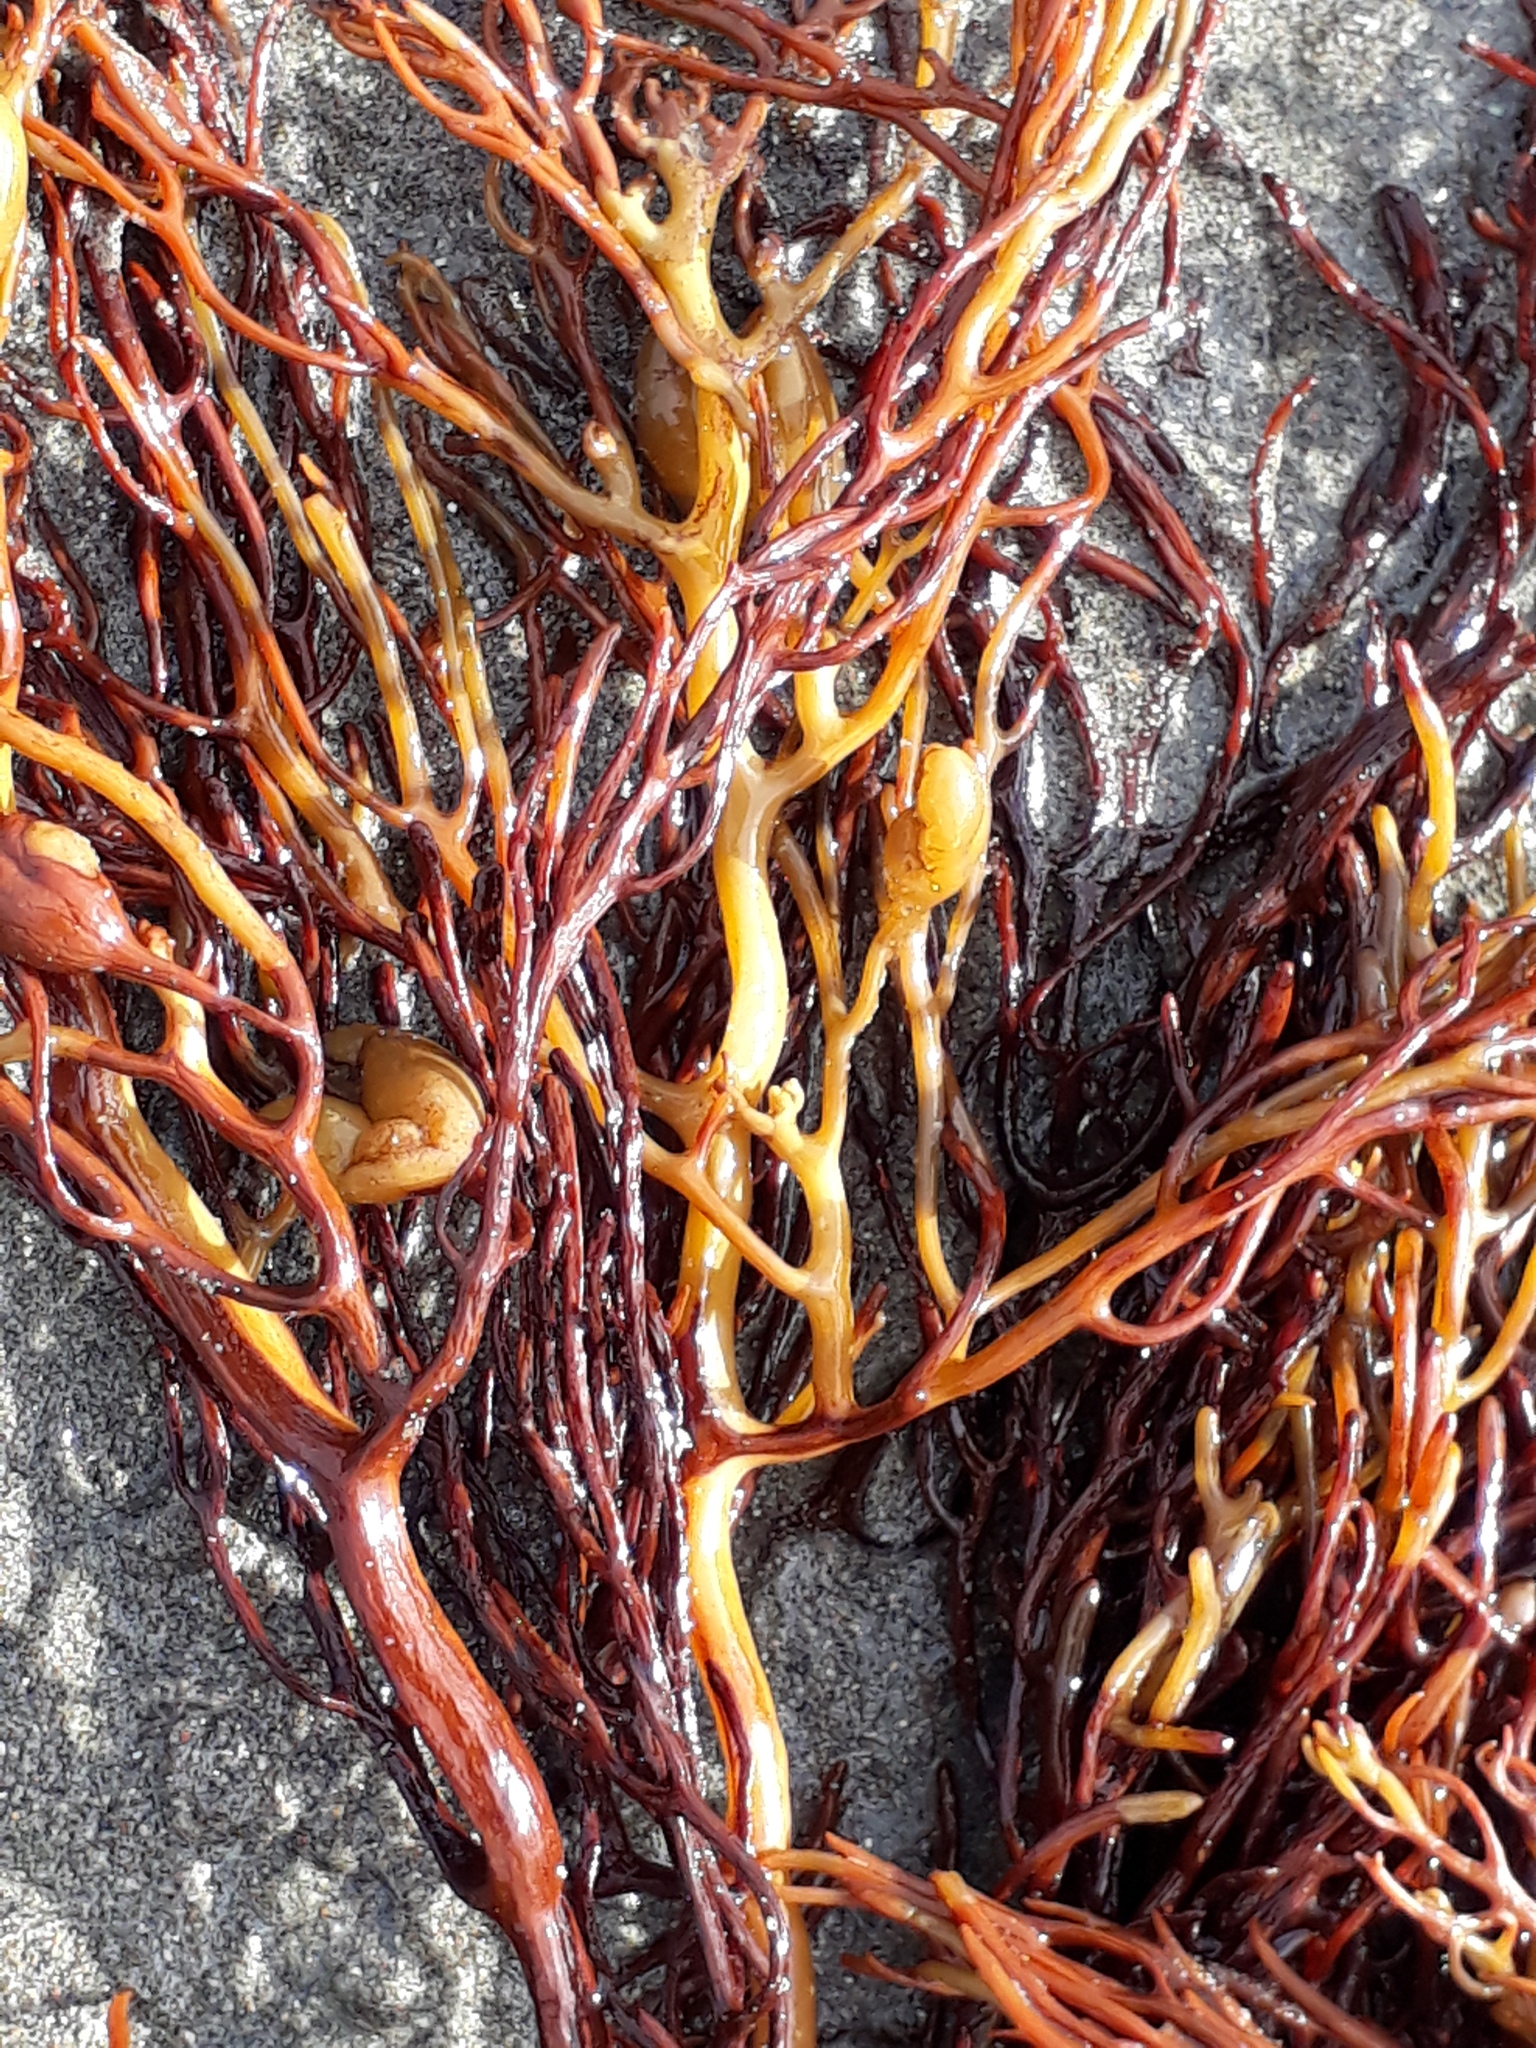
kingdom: Chromista
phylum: Ochrophyta
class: Phaeophyceae
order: Fucales
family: Sargassaceae
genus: Cystophora
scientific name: Cystophora retroflexa
